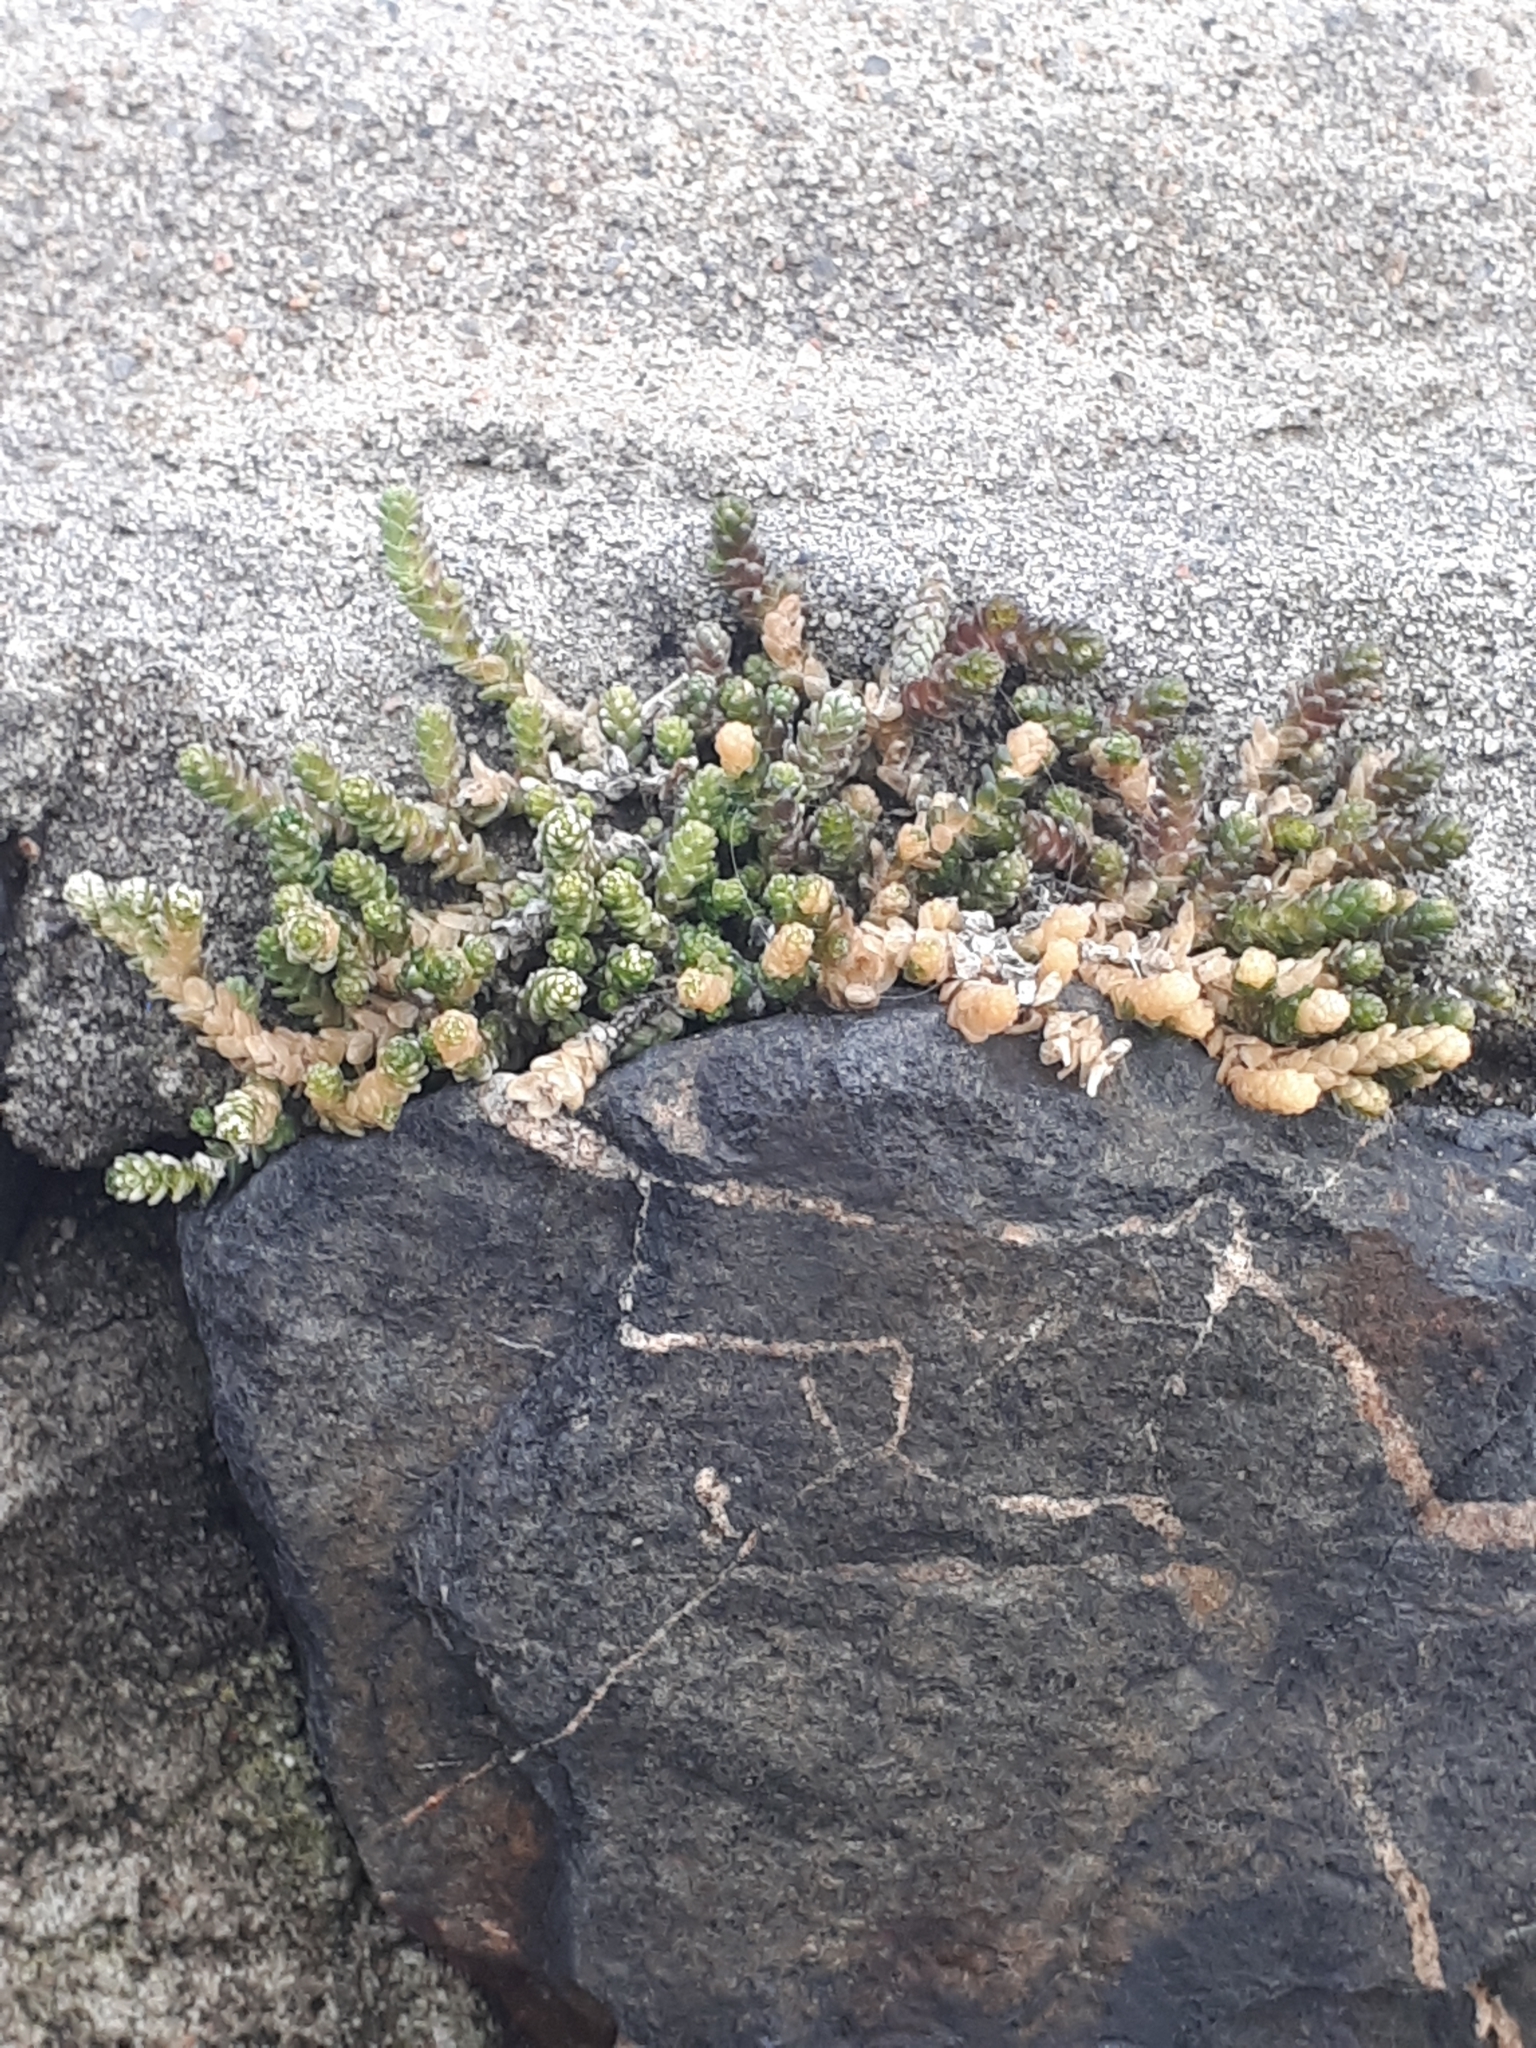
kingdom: Plantae
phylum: Tracheophyta
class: Magnoliopsida
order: Saxifragales
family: Crassulaceae
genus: Sedum
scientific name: Sedum acre
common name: Biting stonecrop
